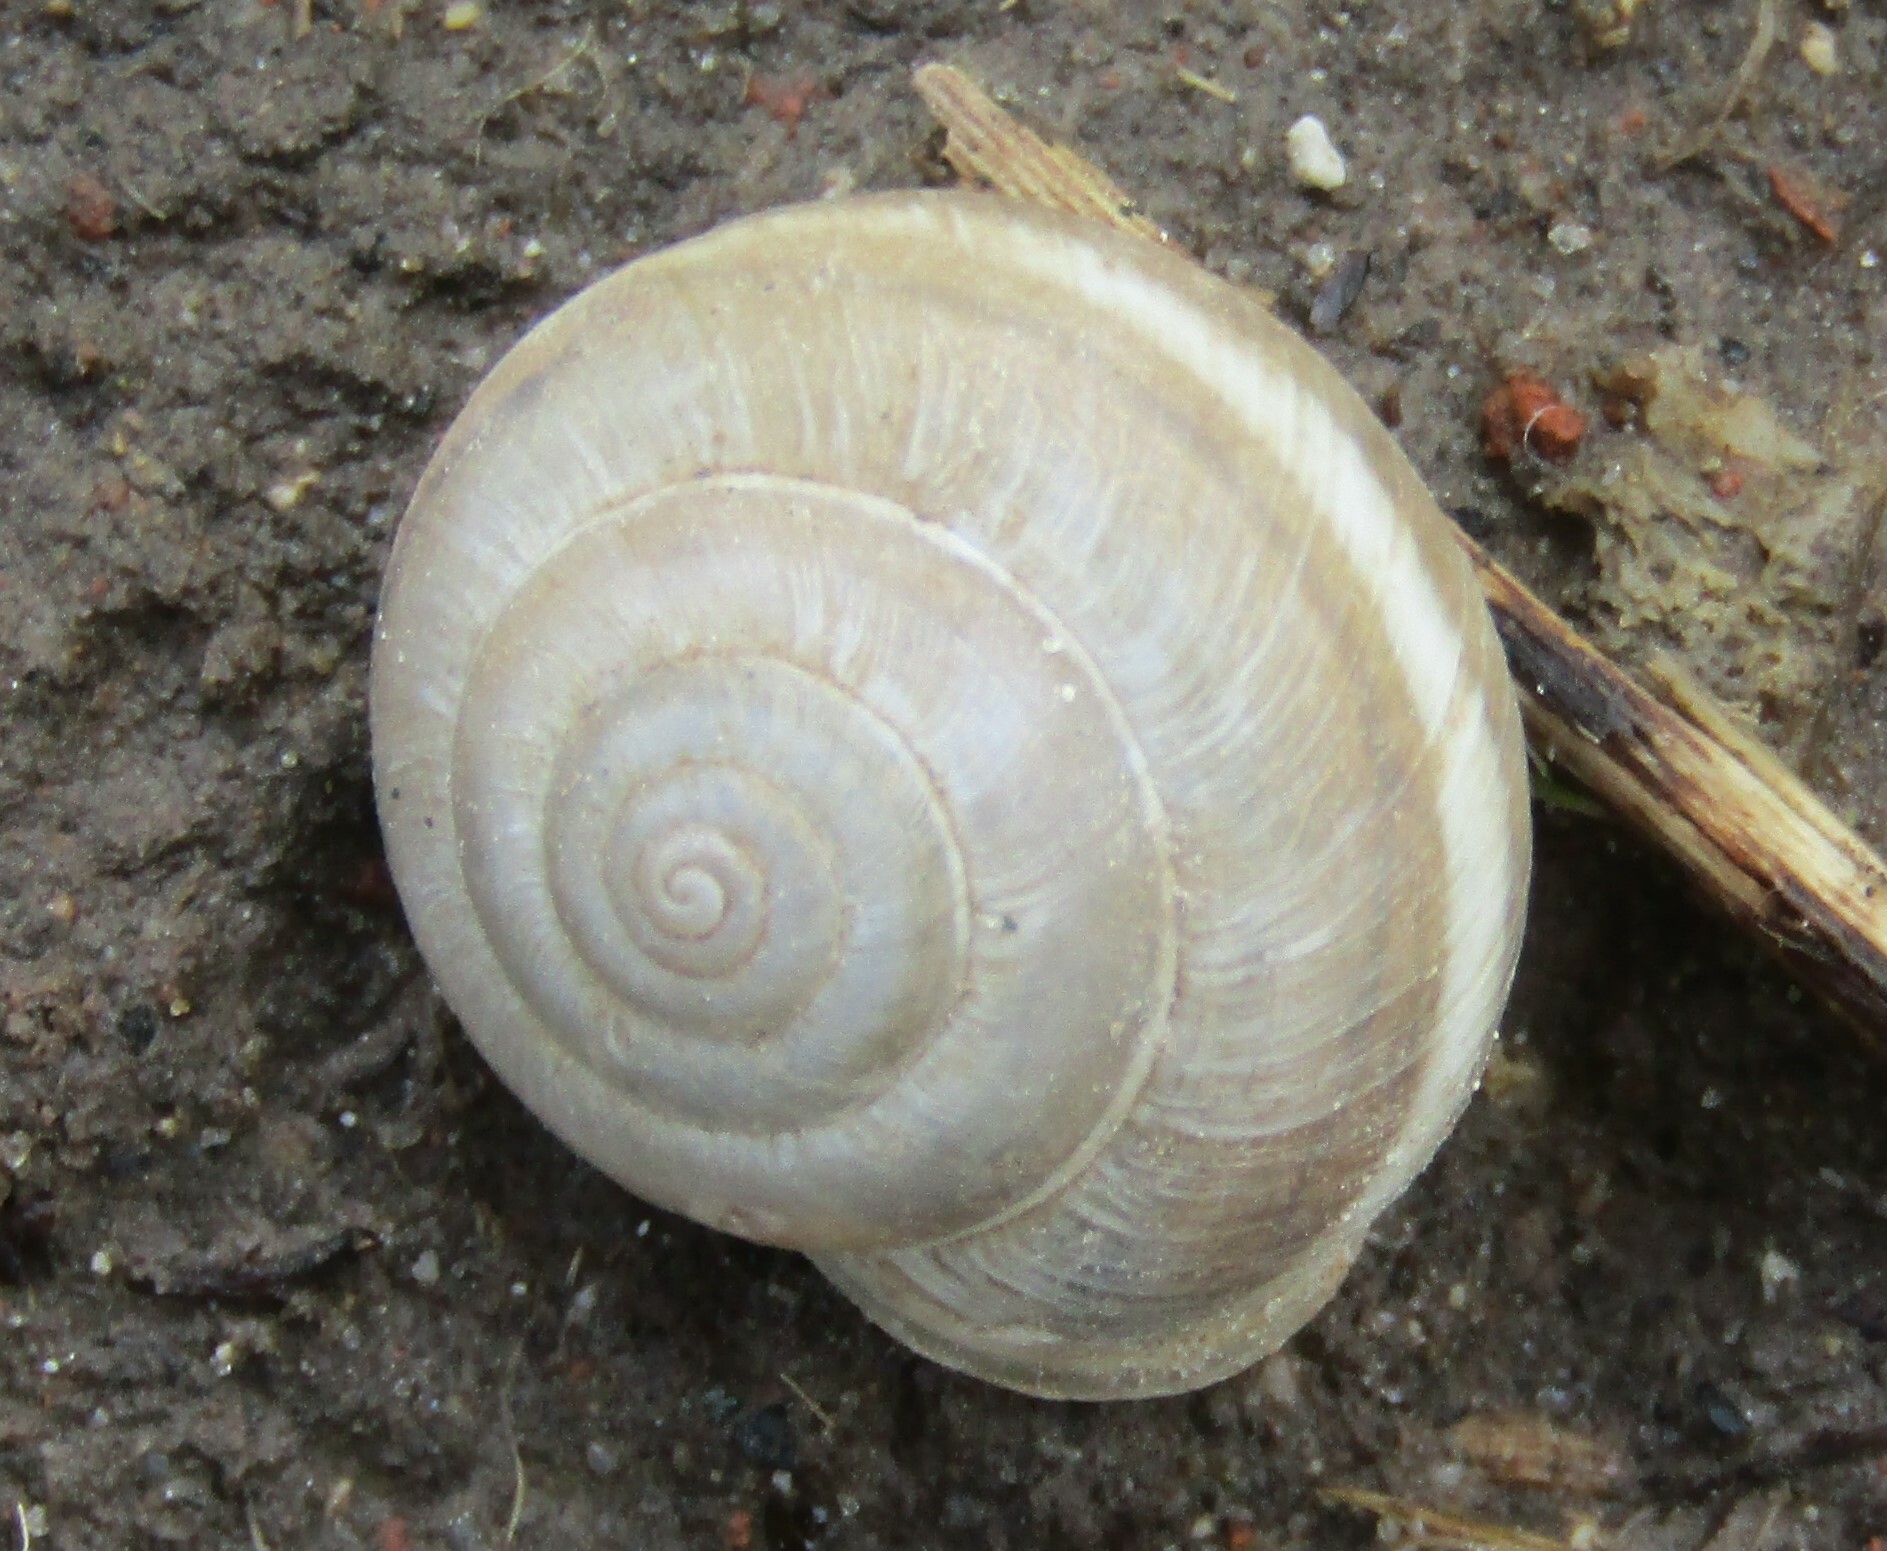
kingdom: Animalia
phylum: Mollusca
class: Gastropoda
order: Stylommatophora
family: Hygromiidae
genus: Harmozica
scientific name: Harmozica ravergiensis
